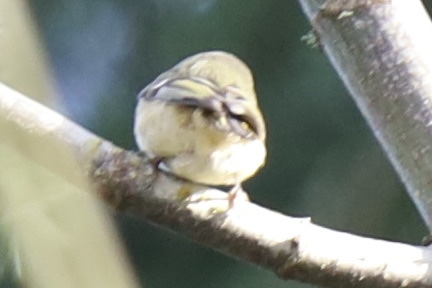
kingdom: Animalia
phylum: Chordata
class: Aves
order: Passeriformes
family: Regulidae
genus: Regulus
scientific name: Regulus calendula
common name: Ruby-crowned kinglet
